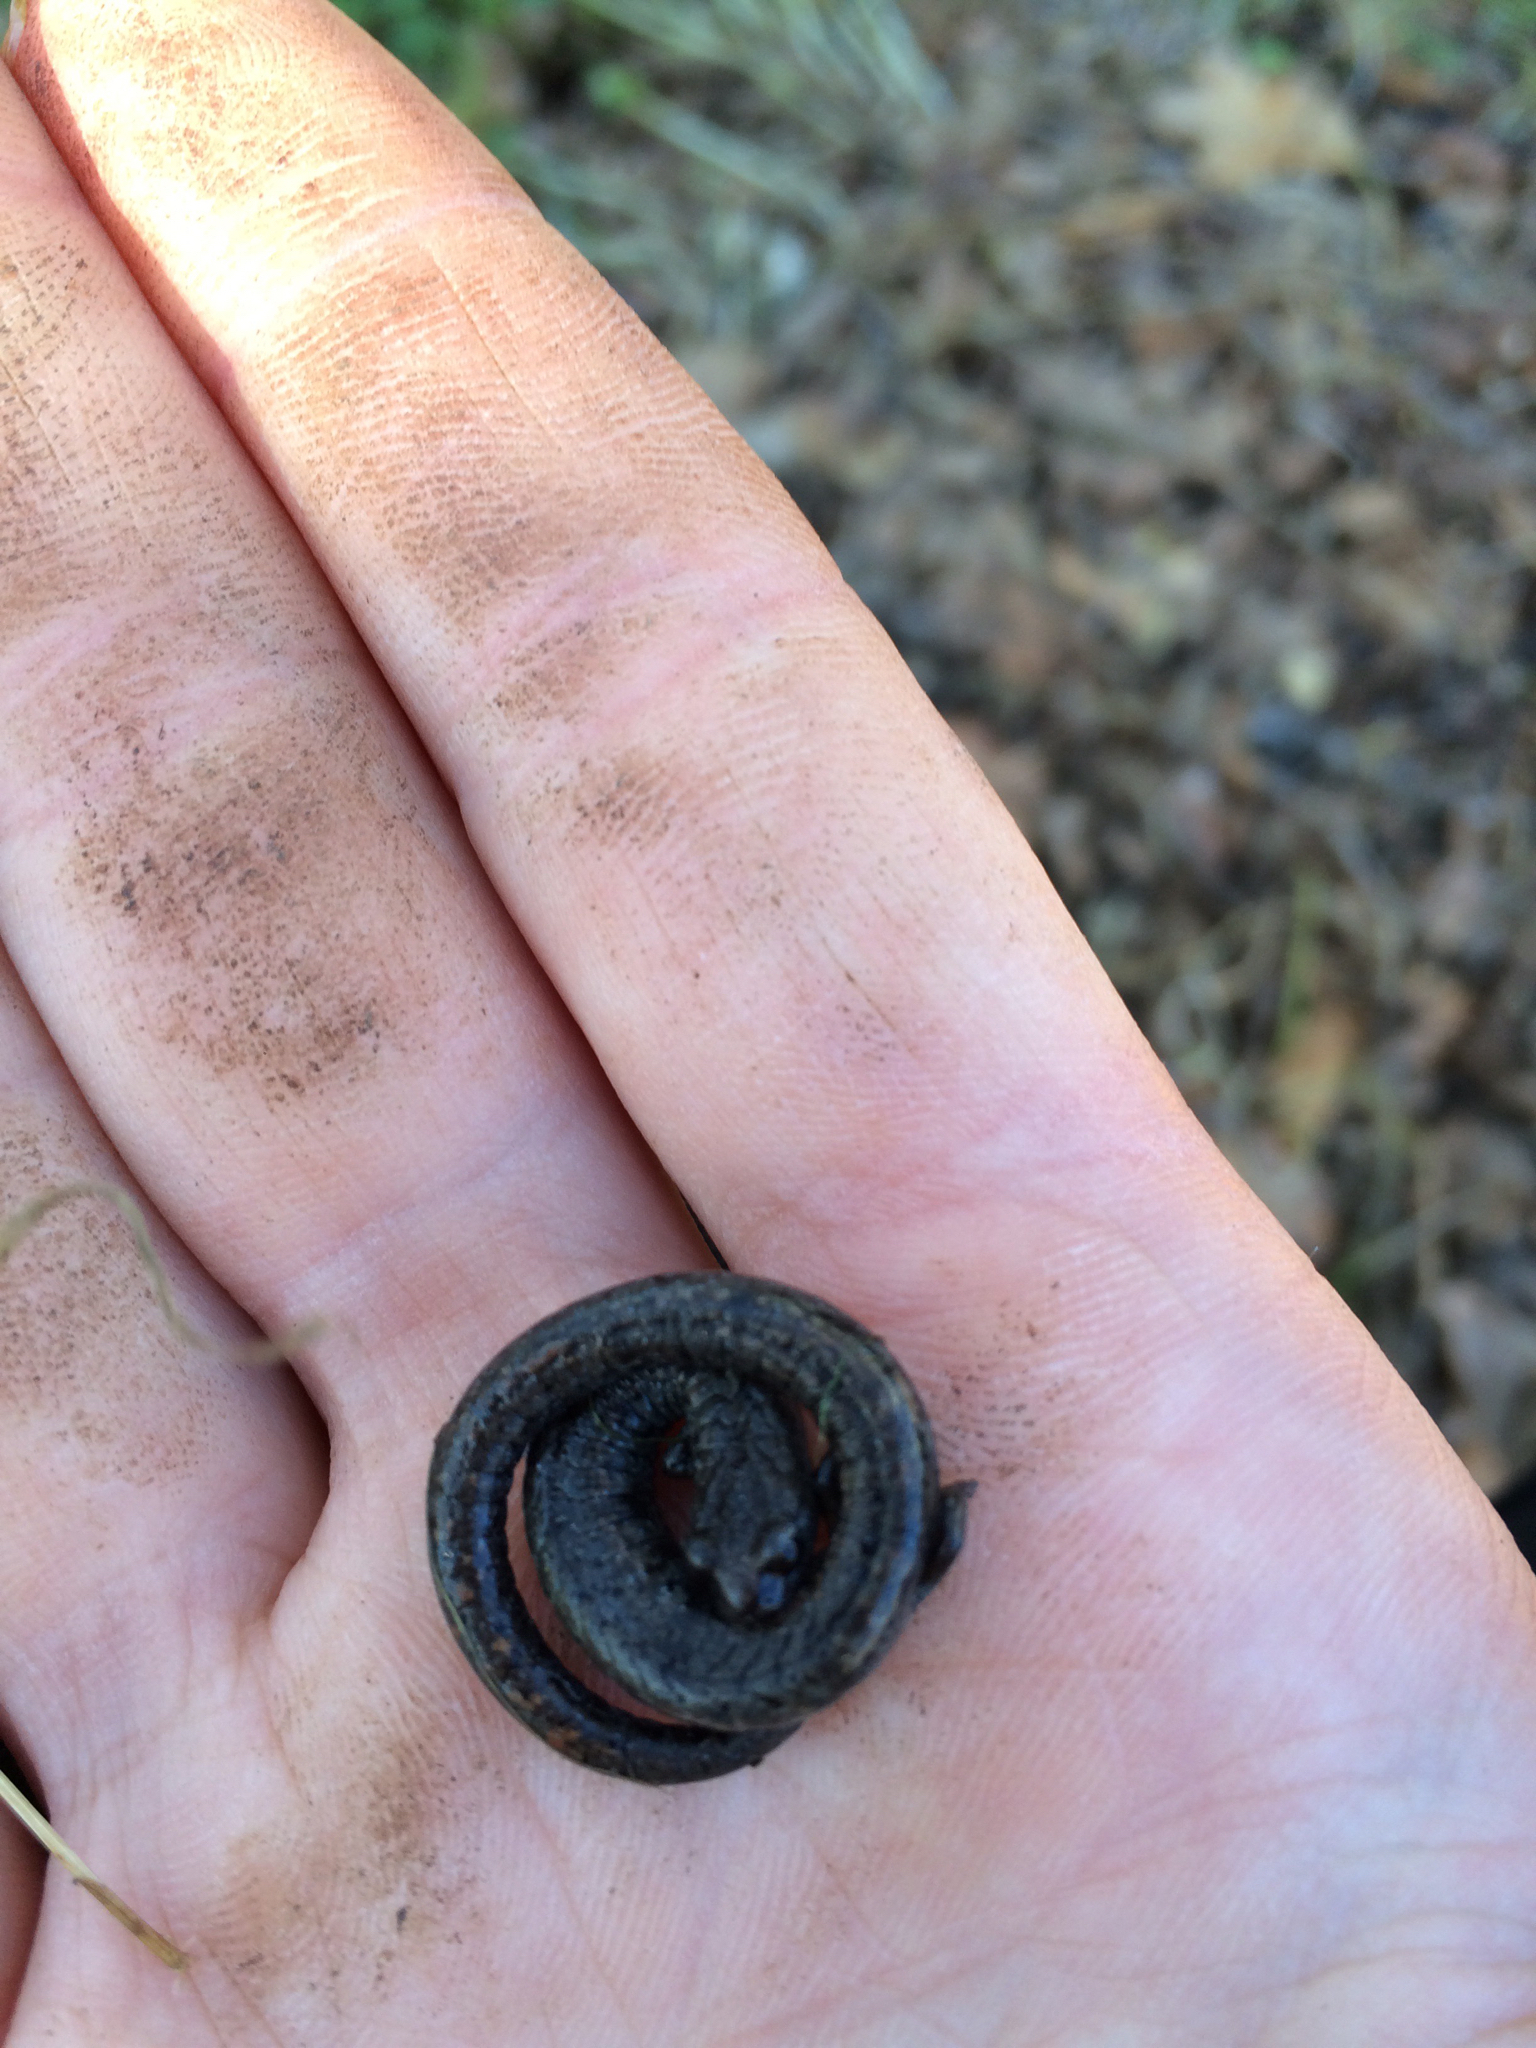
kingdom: Animalia
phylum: Chordata
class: Amphibia
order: Caudata
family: Plethodontidae
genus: Batrachoseps
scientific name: Batrachoseps attenuatus
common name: California slender salamander
